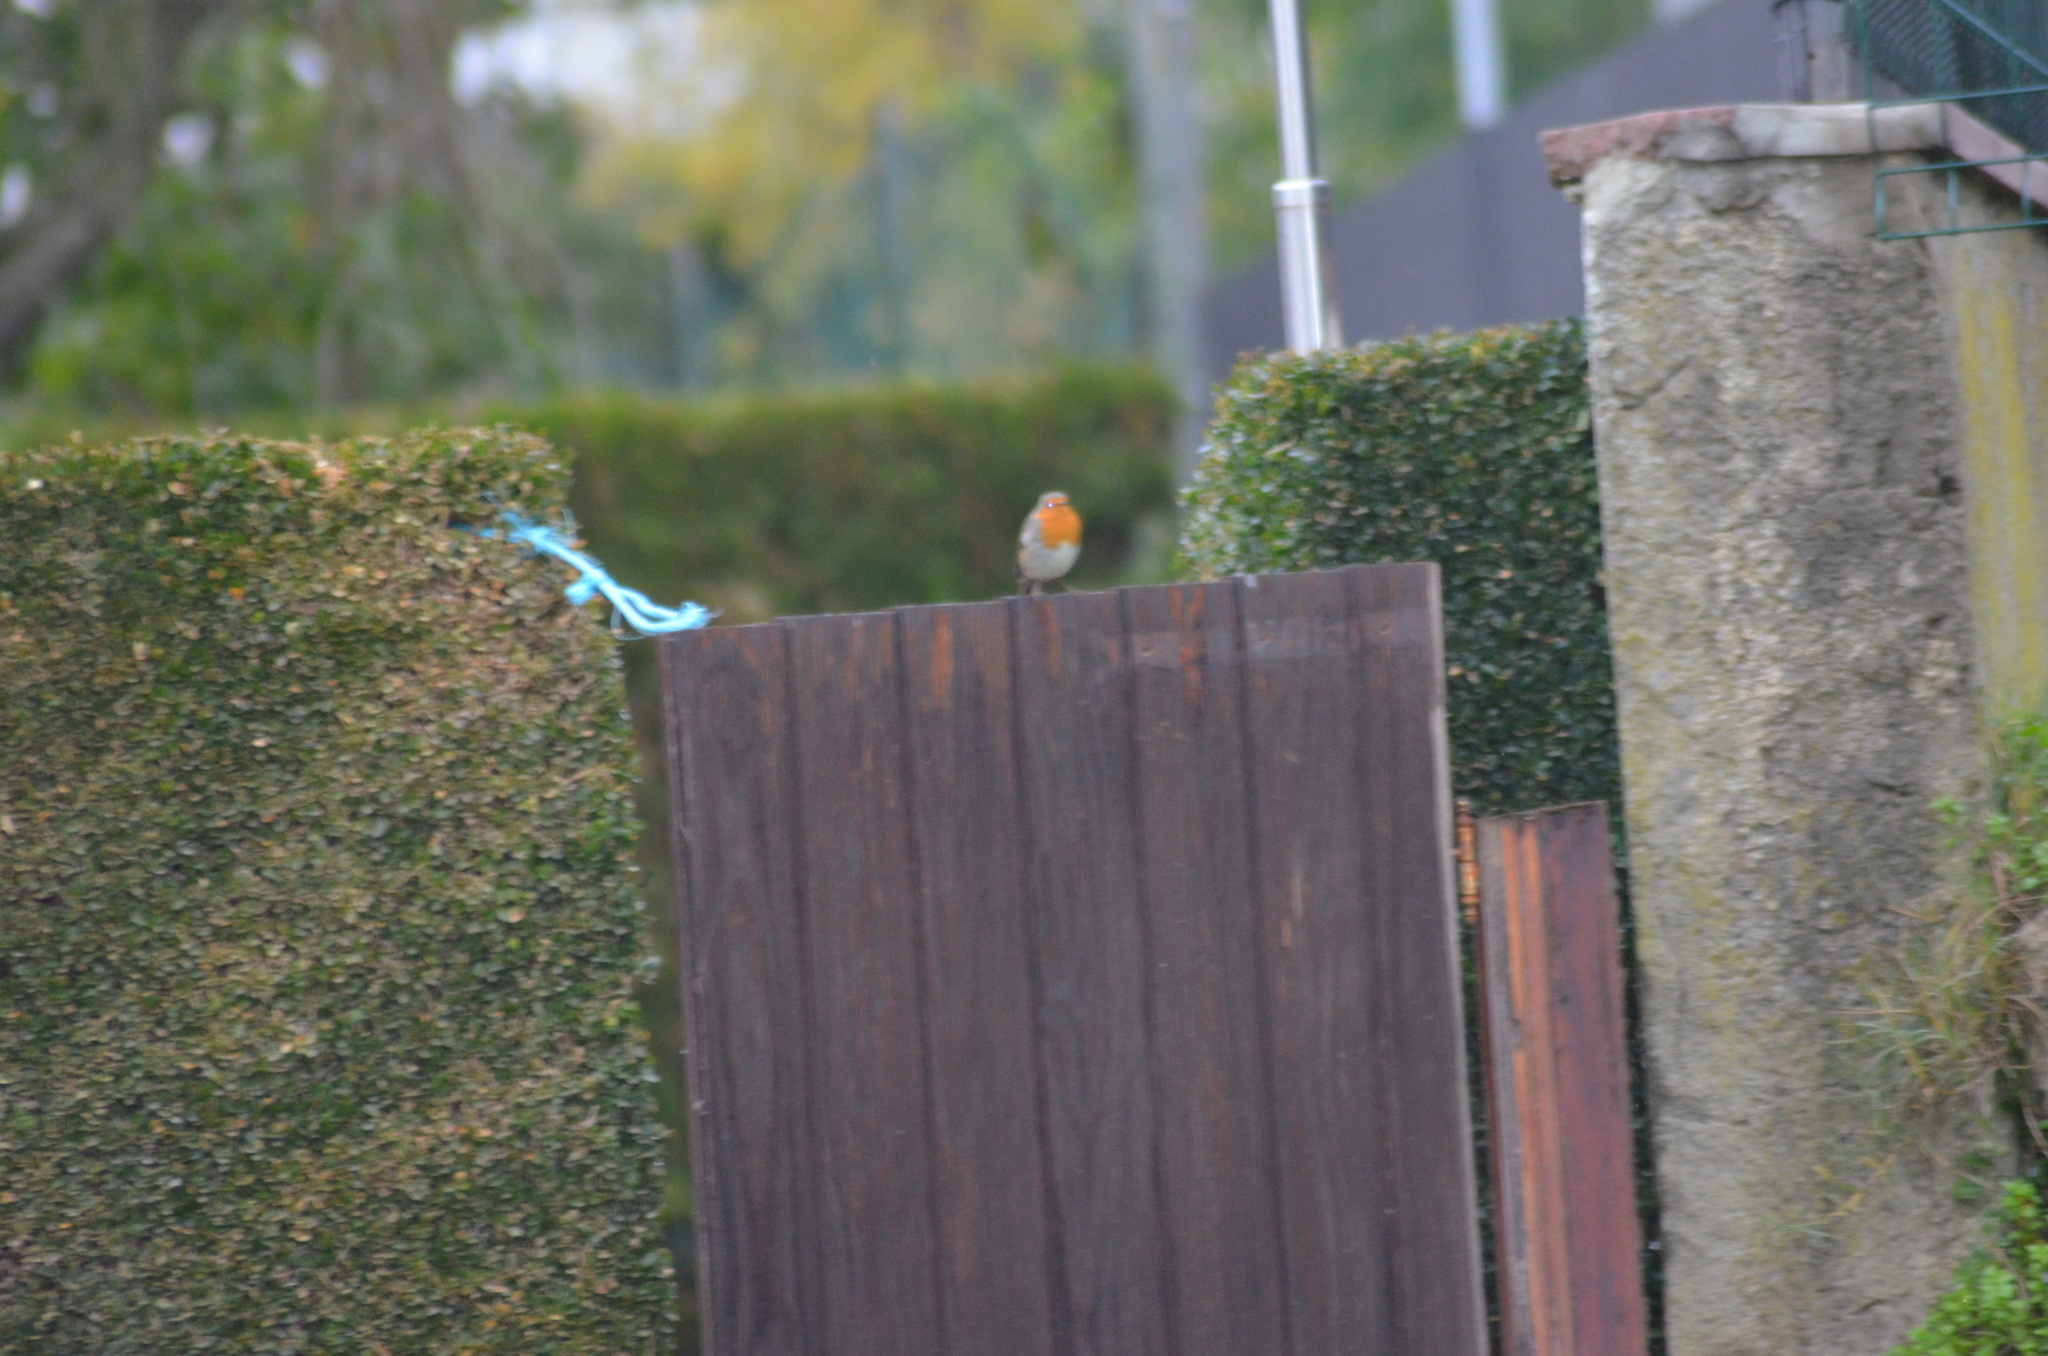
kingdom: Animalia
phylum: Chordata
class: Aves
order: Passeriformes
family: Muscicapidae
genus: Erithacus
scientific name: Erithacus rubecula
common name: European robin
